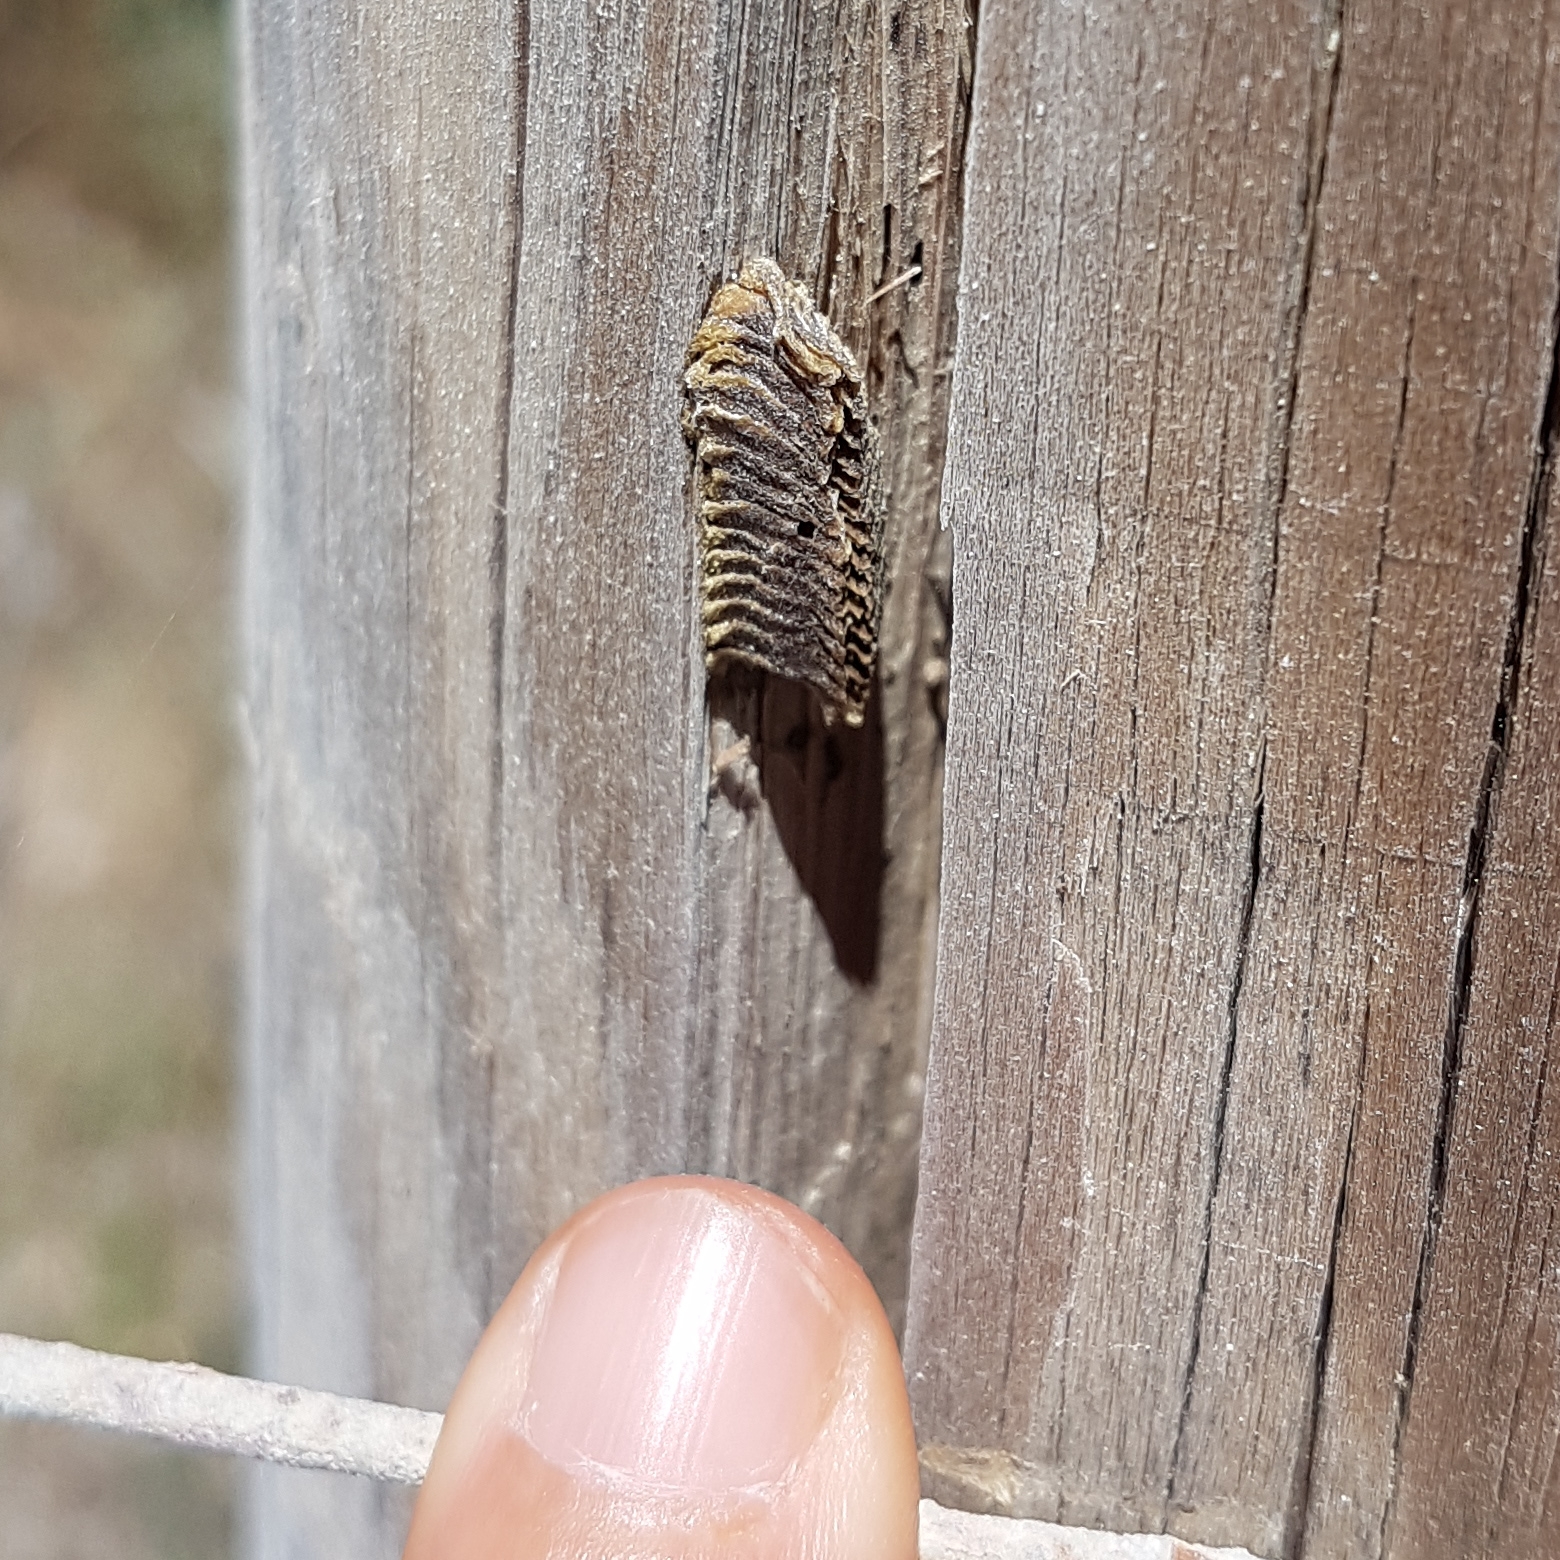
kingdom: Animalia
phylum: Arthropoda
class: Insecta
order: Mantodea
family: Eremiaphilidae
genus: Iris
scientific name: Iris oratoria
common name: Mediterranean mantis
